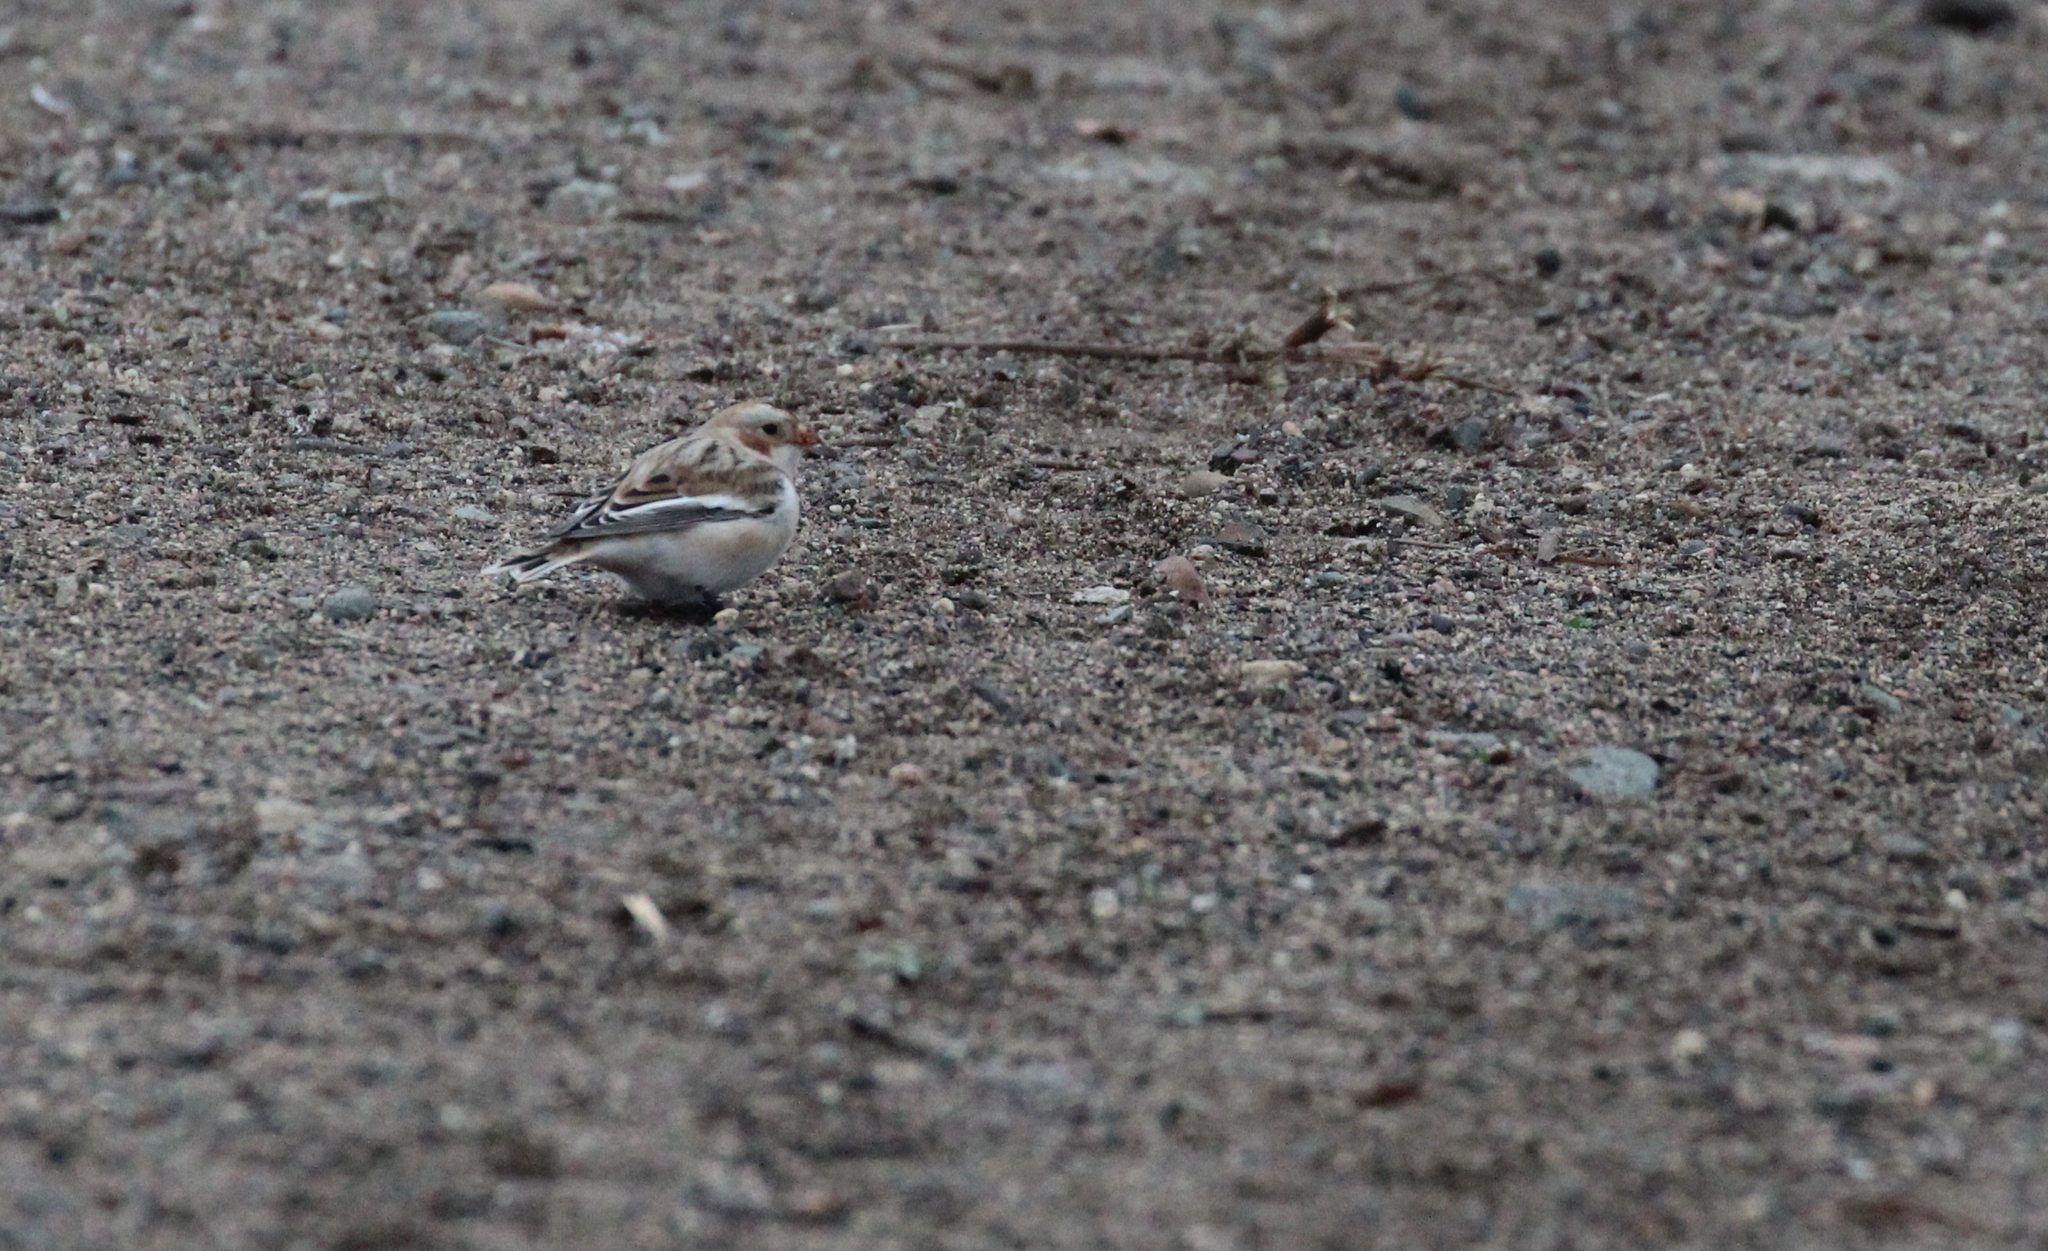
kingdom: Animalia
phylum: Chordata
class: Aves
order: Passeriformes
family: Calcariidae
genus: Plectrophenax
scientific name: Plectrophenax nivalis
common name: Snow bunting
